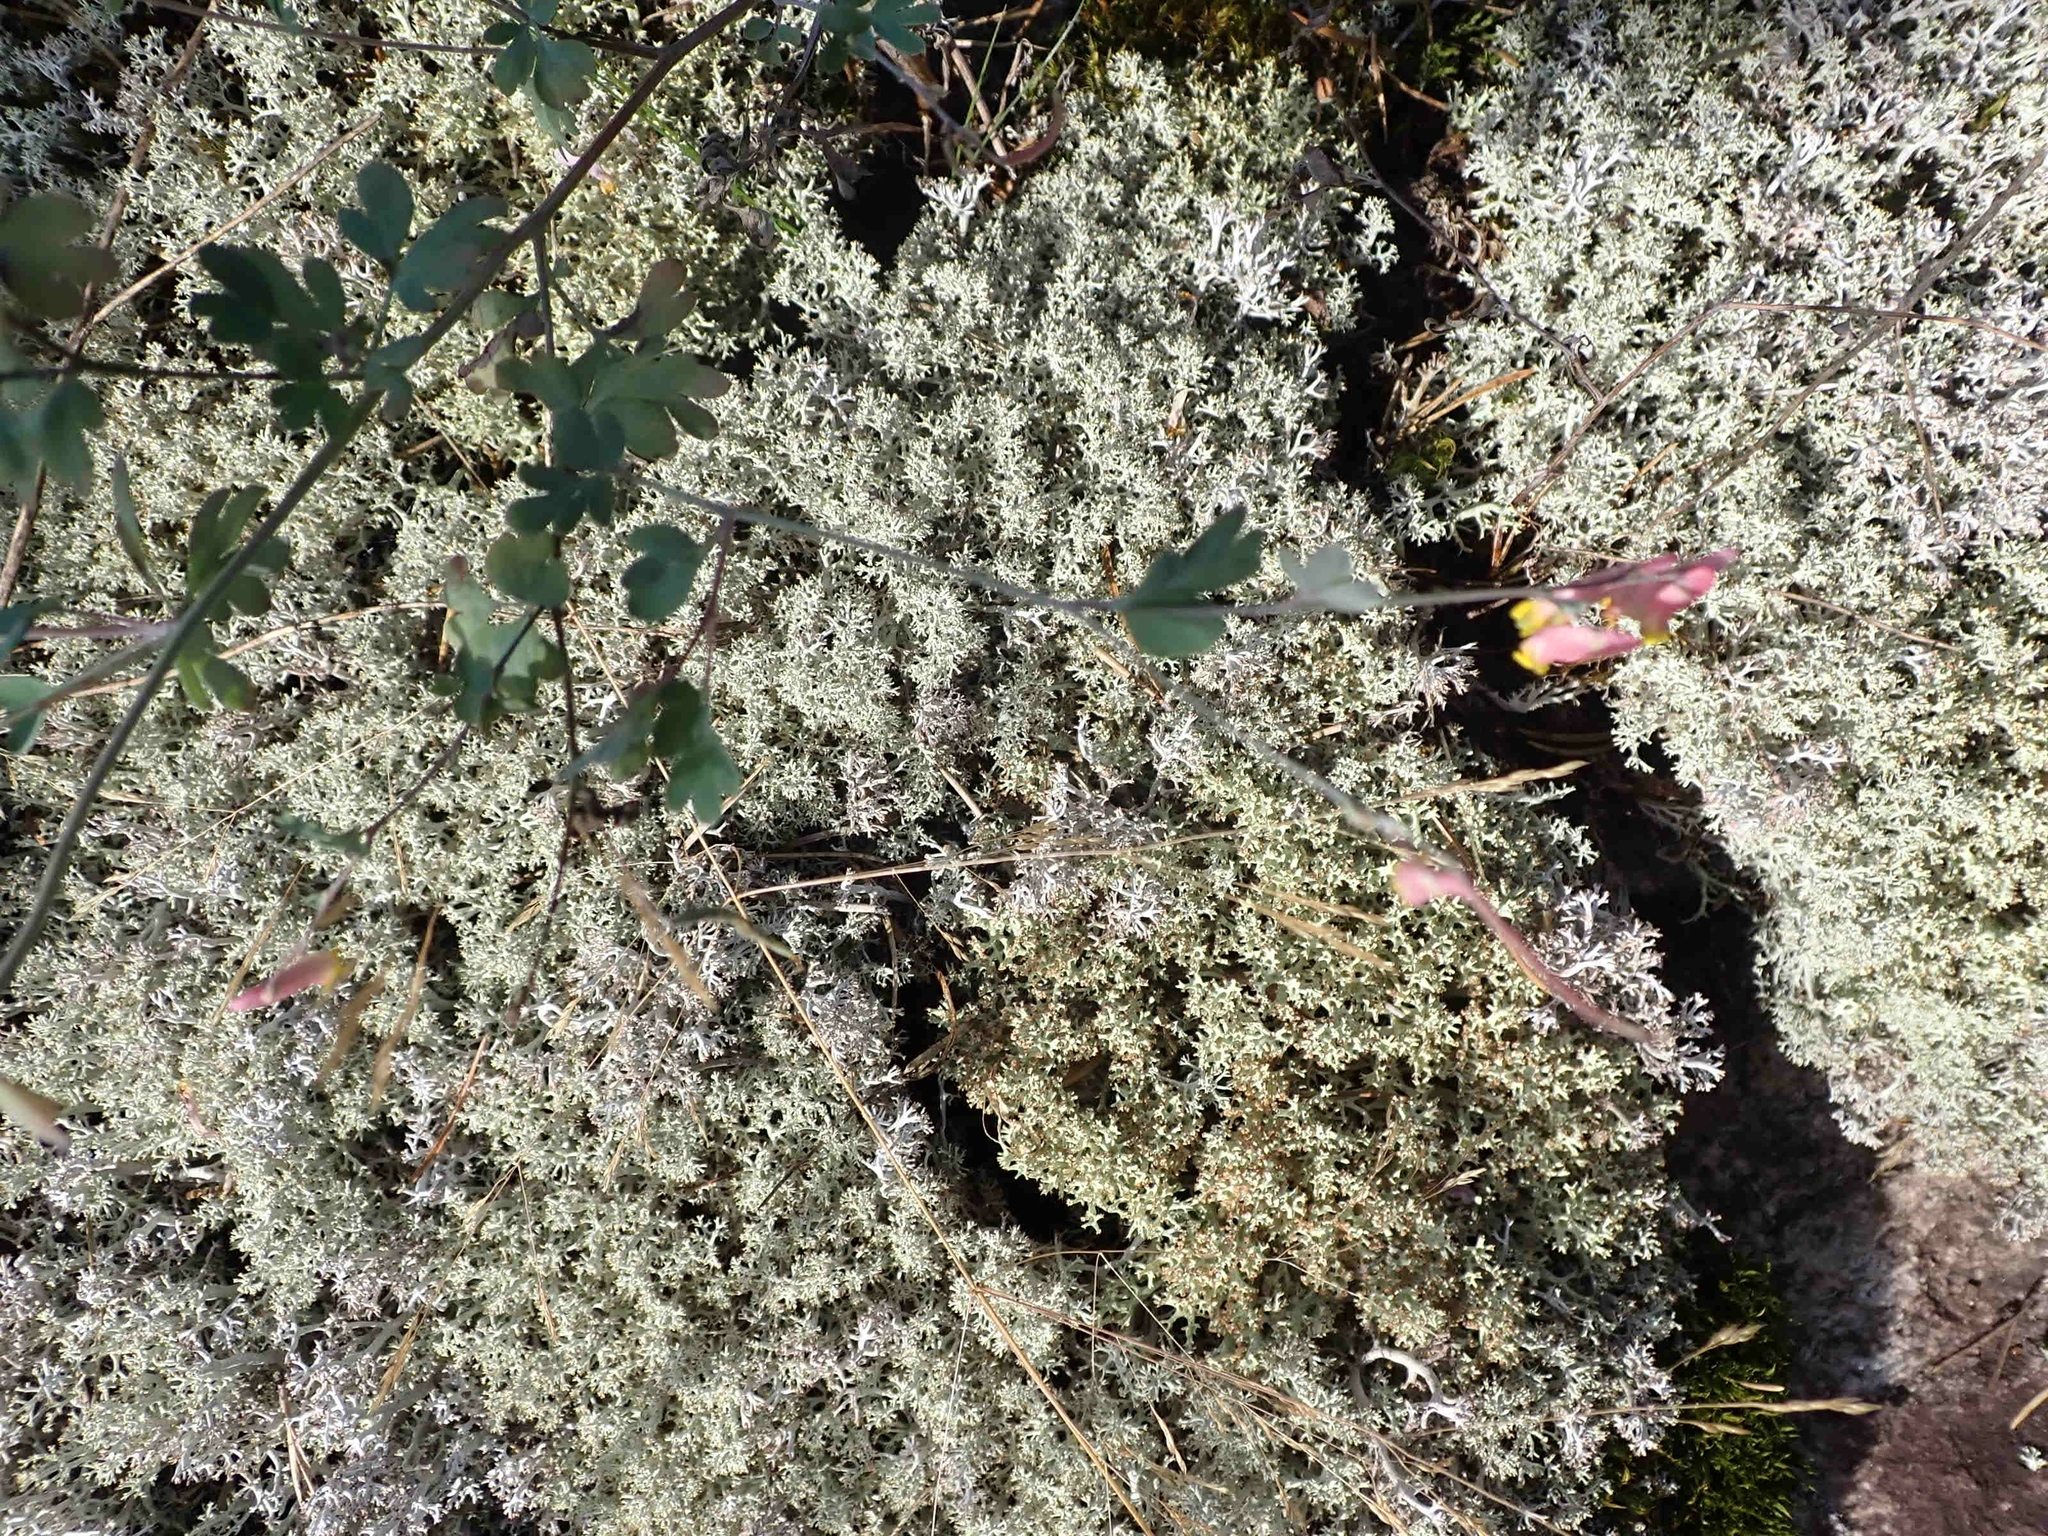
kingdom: Plantae
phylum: Tracheophyta
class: Magnoliopsida
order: Ranunculales
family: Papaveraceae
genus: Capnoides
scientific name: Capnoides sempervirens
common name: Rock harlequin
